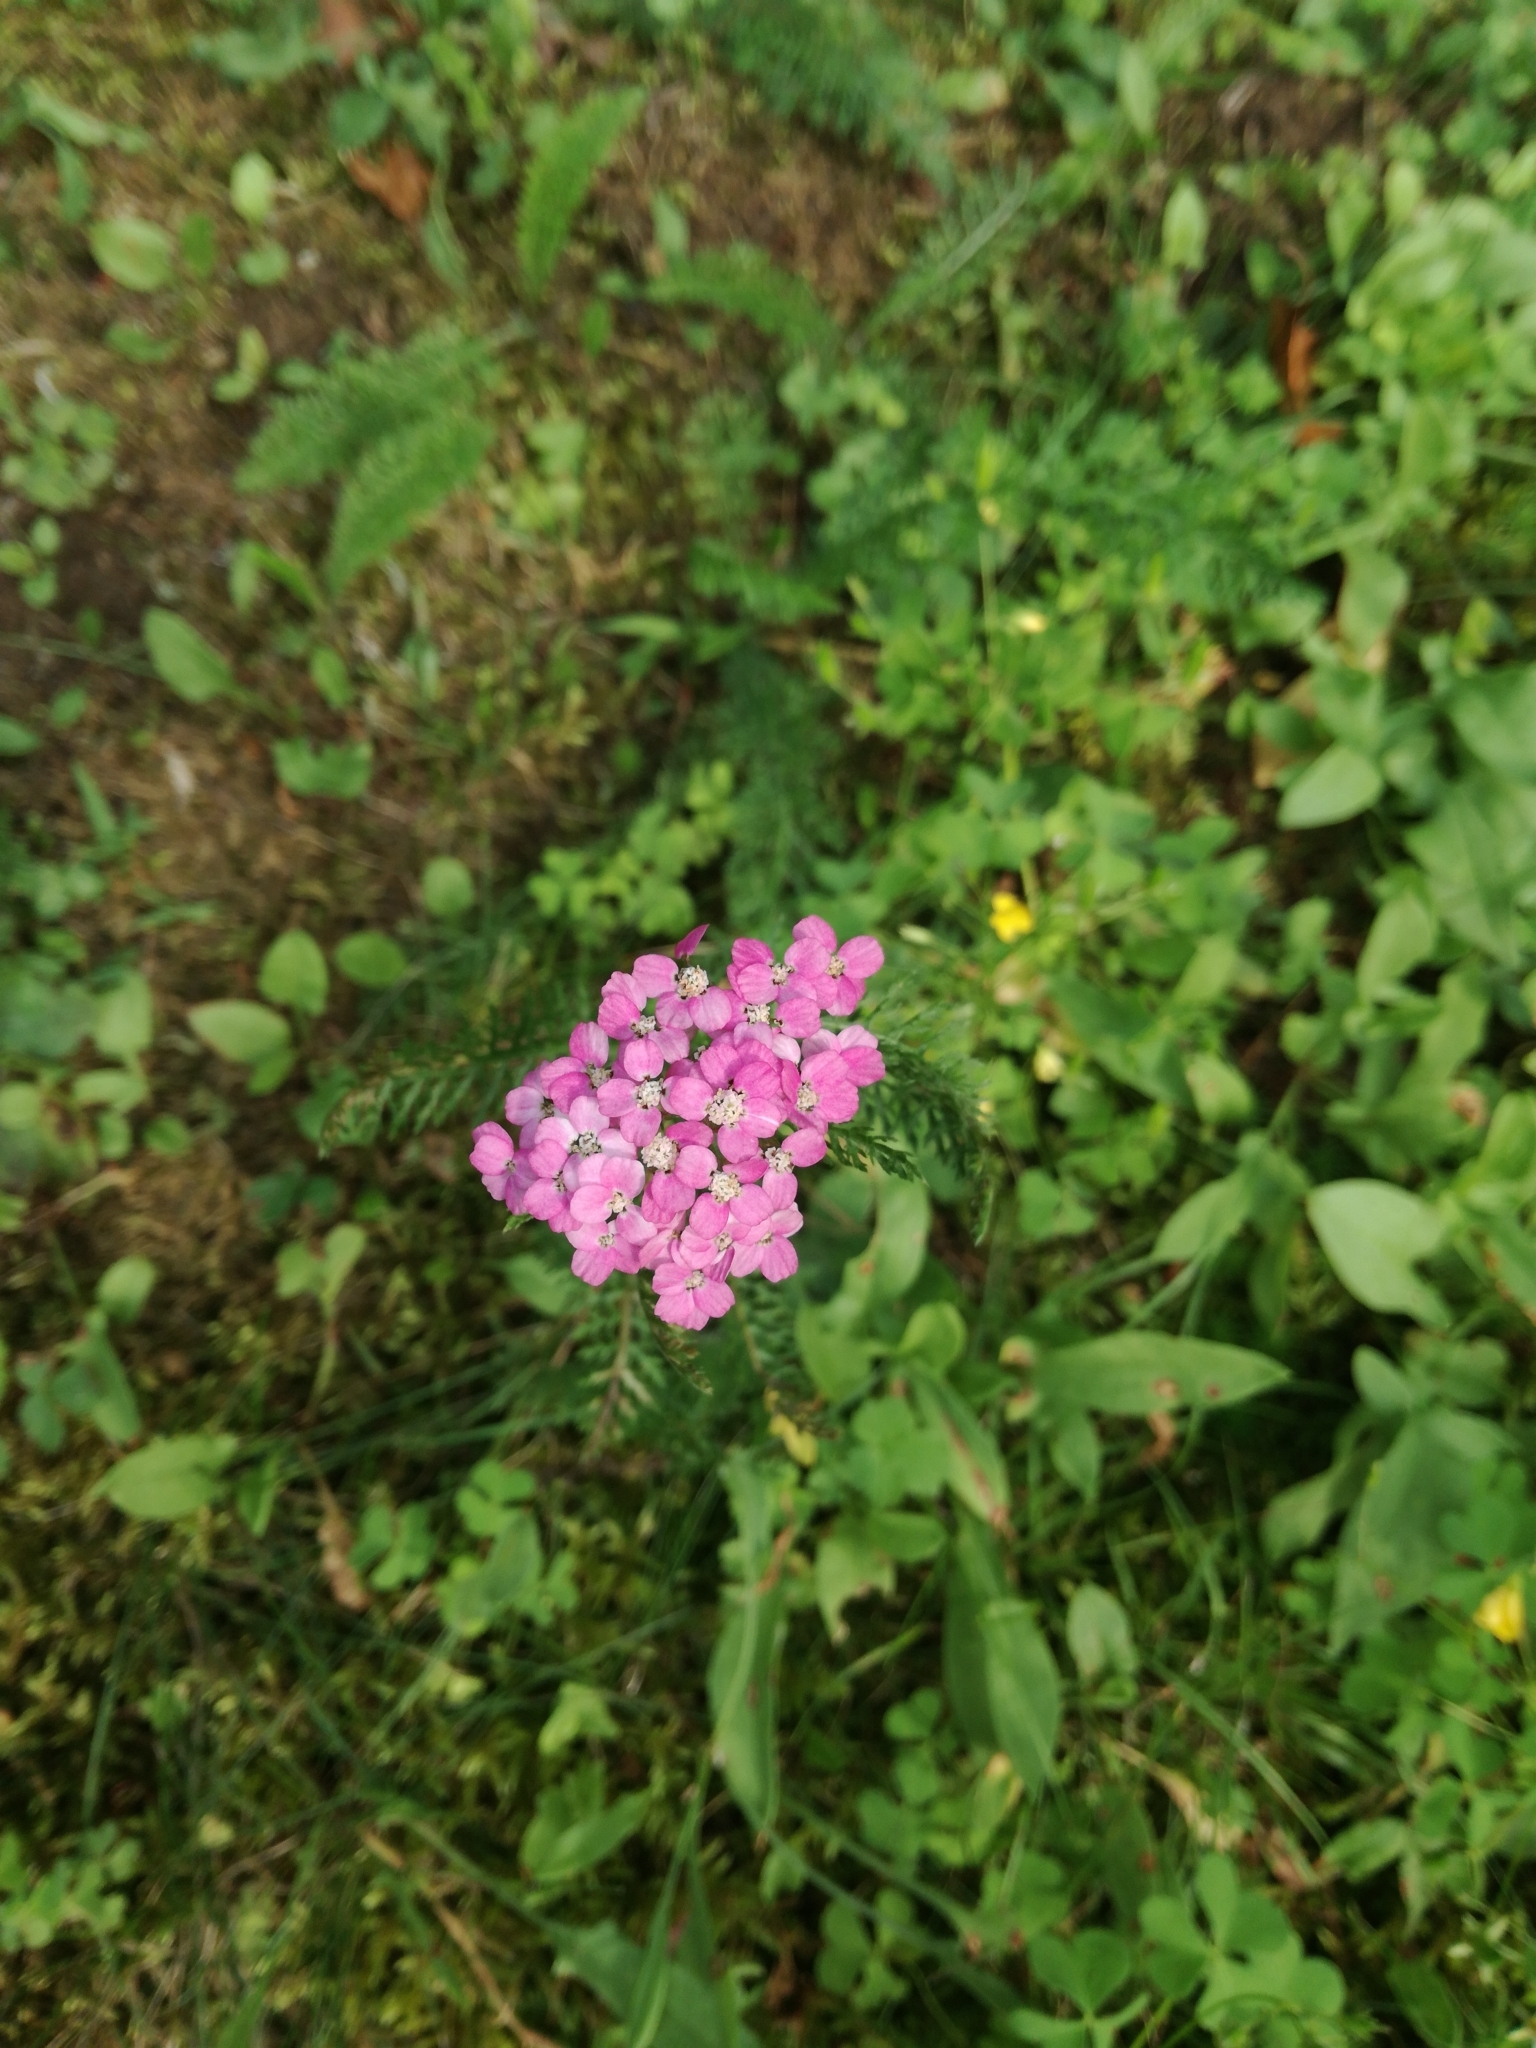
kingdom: Plantae
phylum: Tracheophyta
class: Magnoliopsida
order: Asterales
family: Asteraceae
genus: Achillea
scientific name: Achillea millefolium
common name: Yarrow
